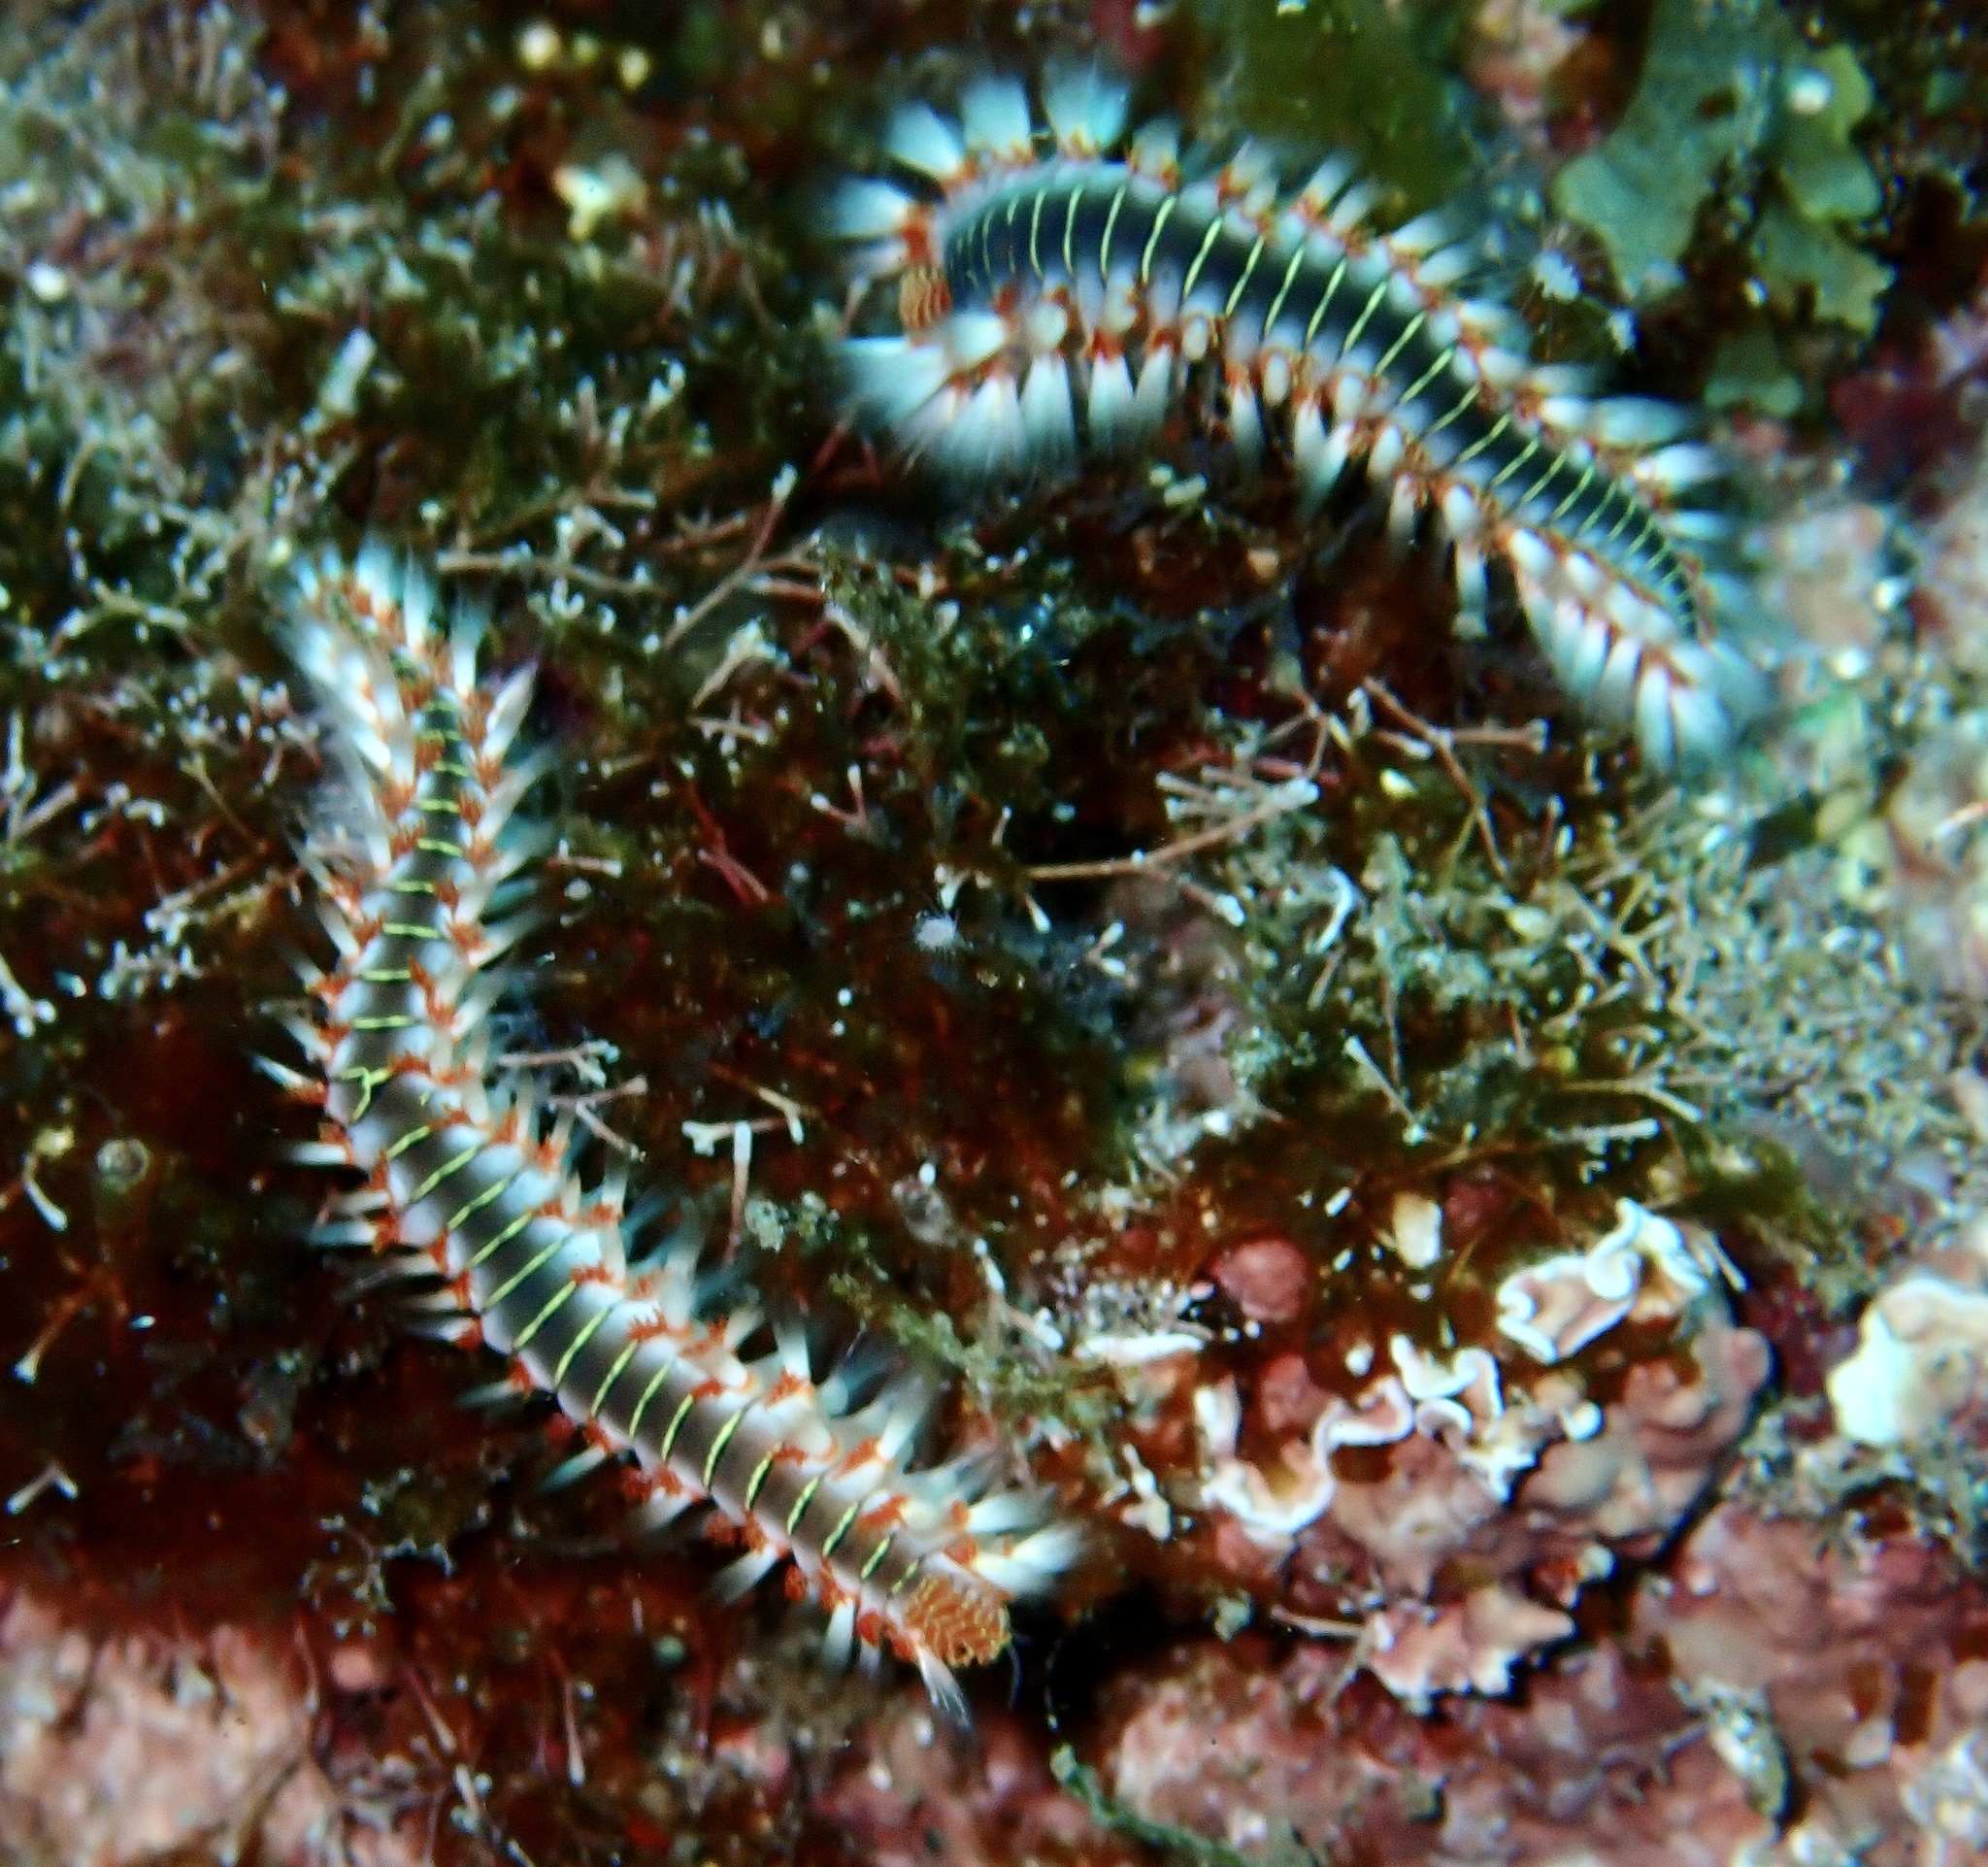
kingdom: Animalia
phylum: Annelida
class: Polychaeta
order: Amphinomida
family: Amphinomidae
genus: Hermodice
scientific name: Hermodice carunculata
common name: Bearded fireworm
